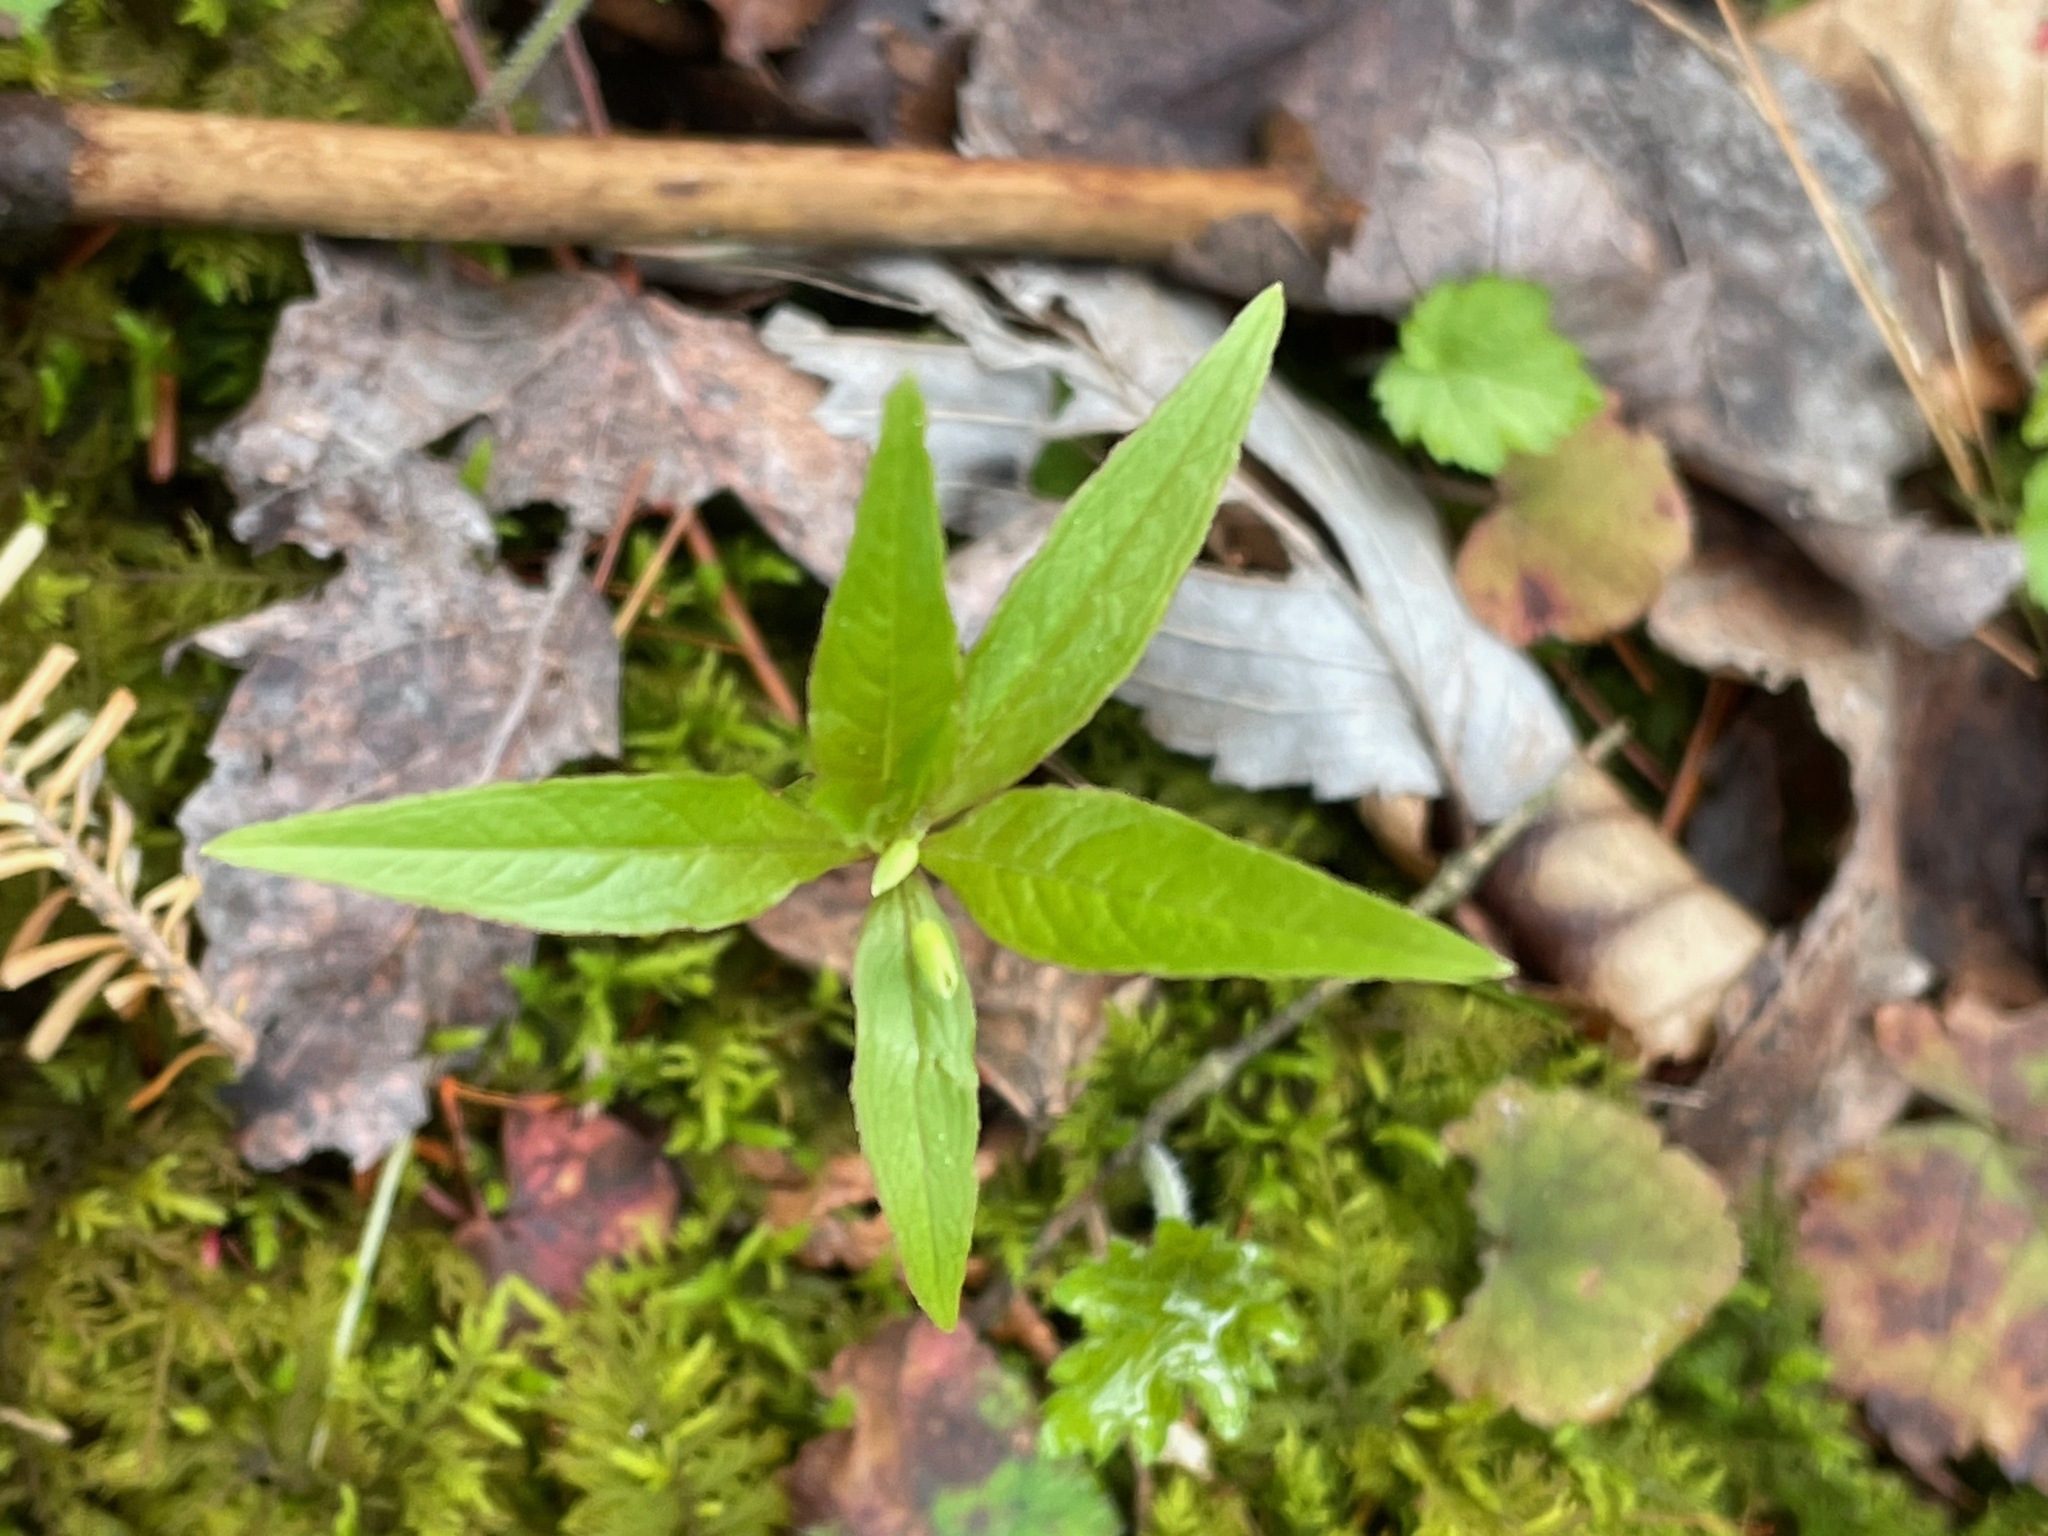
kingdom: Plantae
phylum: Tracheophyta
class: Magnoliopsida
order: Ericales
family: Primulaceae
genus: Lysimachia
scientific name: Lysimachia borealis
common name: American starflower
